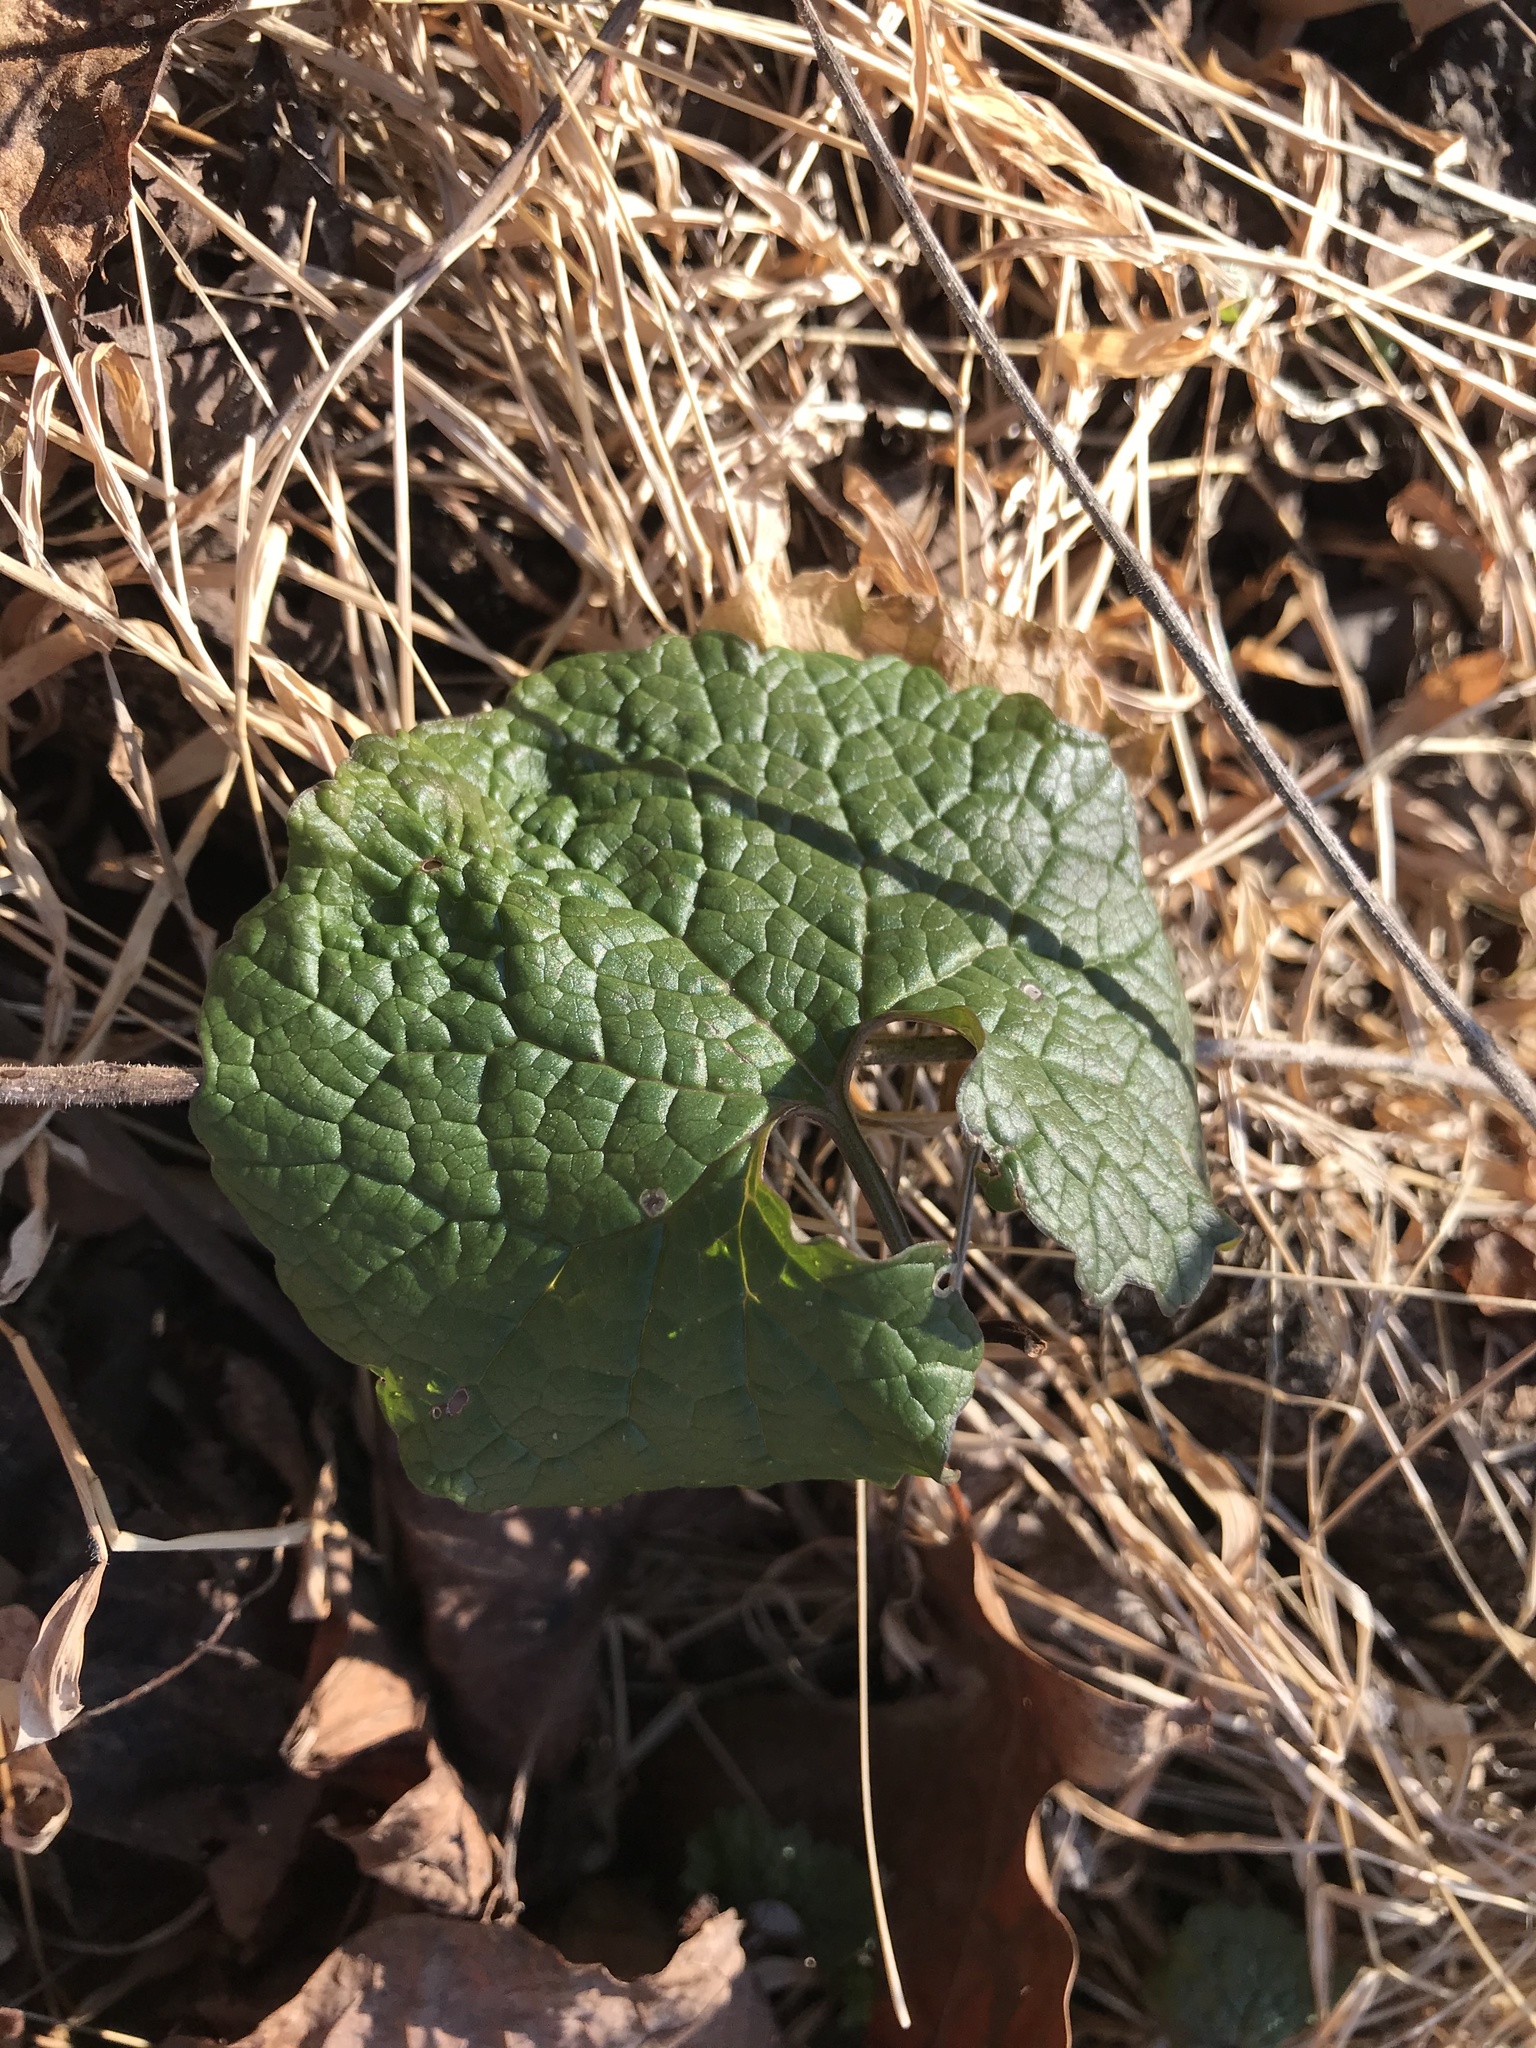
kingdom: Plantae
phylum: Tracheophyta
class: Magnoliopsida
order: Brassicales
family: Brassicaceae
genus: Alliaria
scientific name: Alliaria petiolata
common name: Garlic mustard
